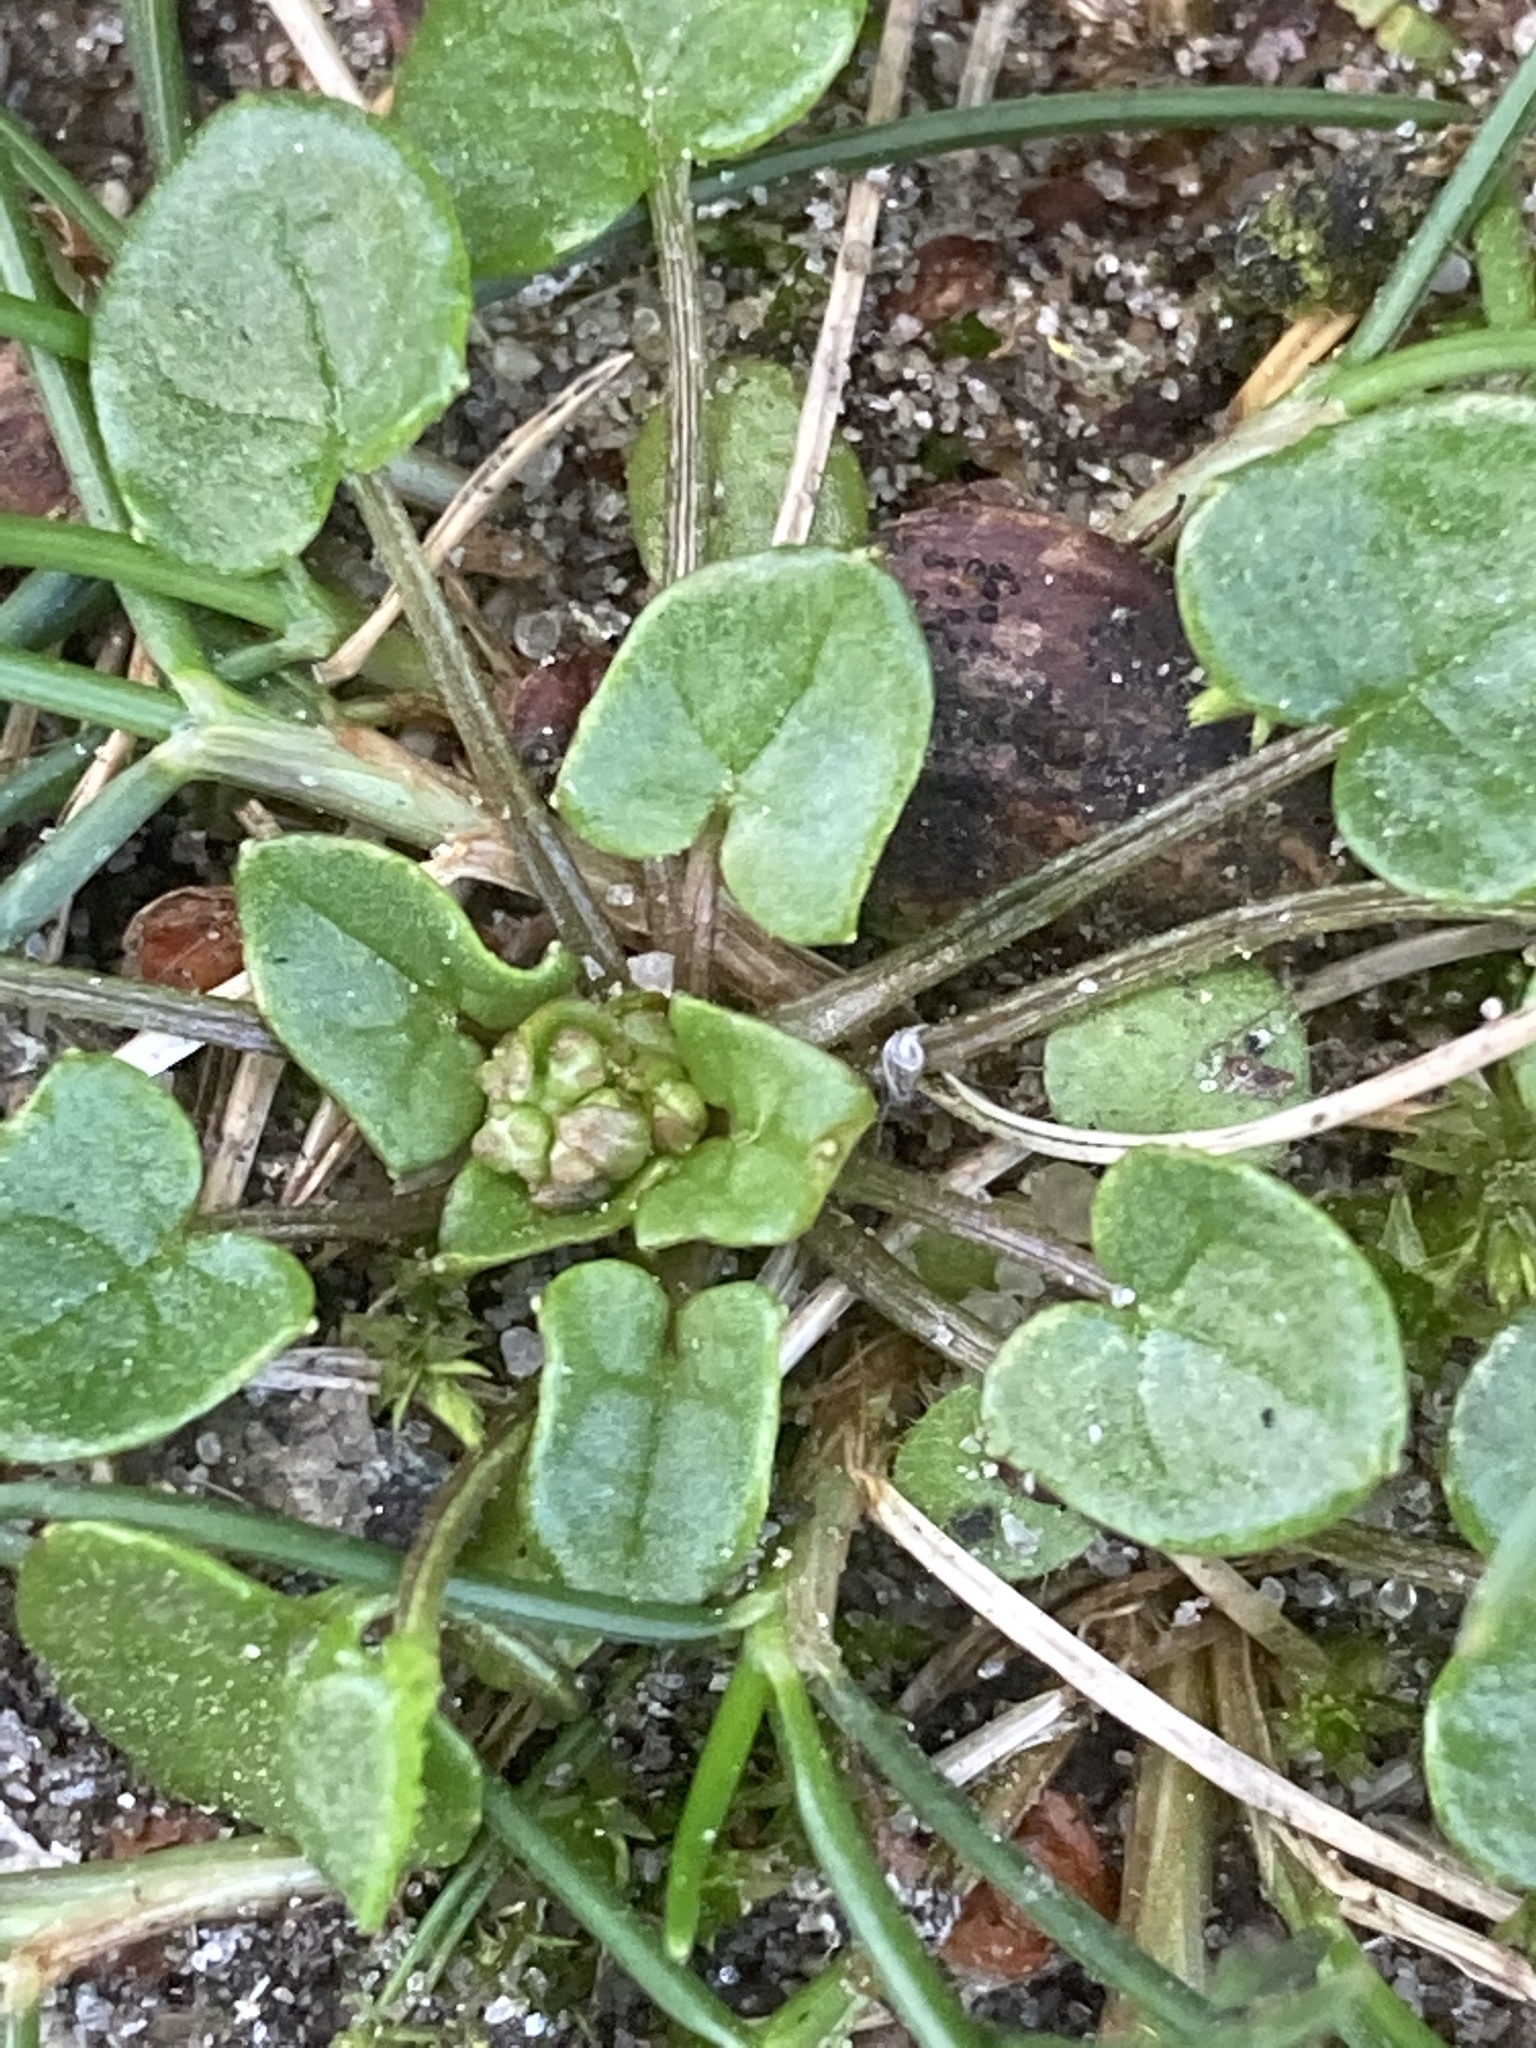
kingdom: Plantae
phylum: Tracheophyta
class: Magnoliopsida
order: Brassicales
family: Brassicaceae
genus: Cochlearia
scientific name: Cochlearia danica
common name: Early scurvygrass
